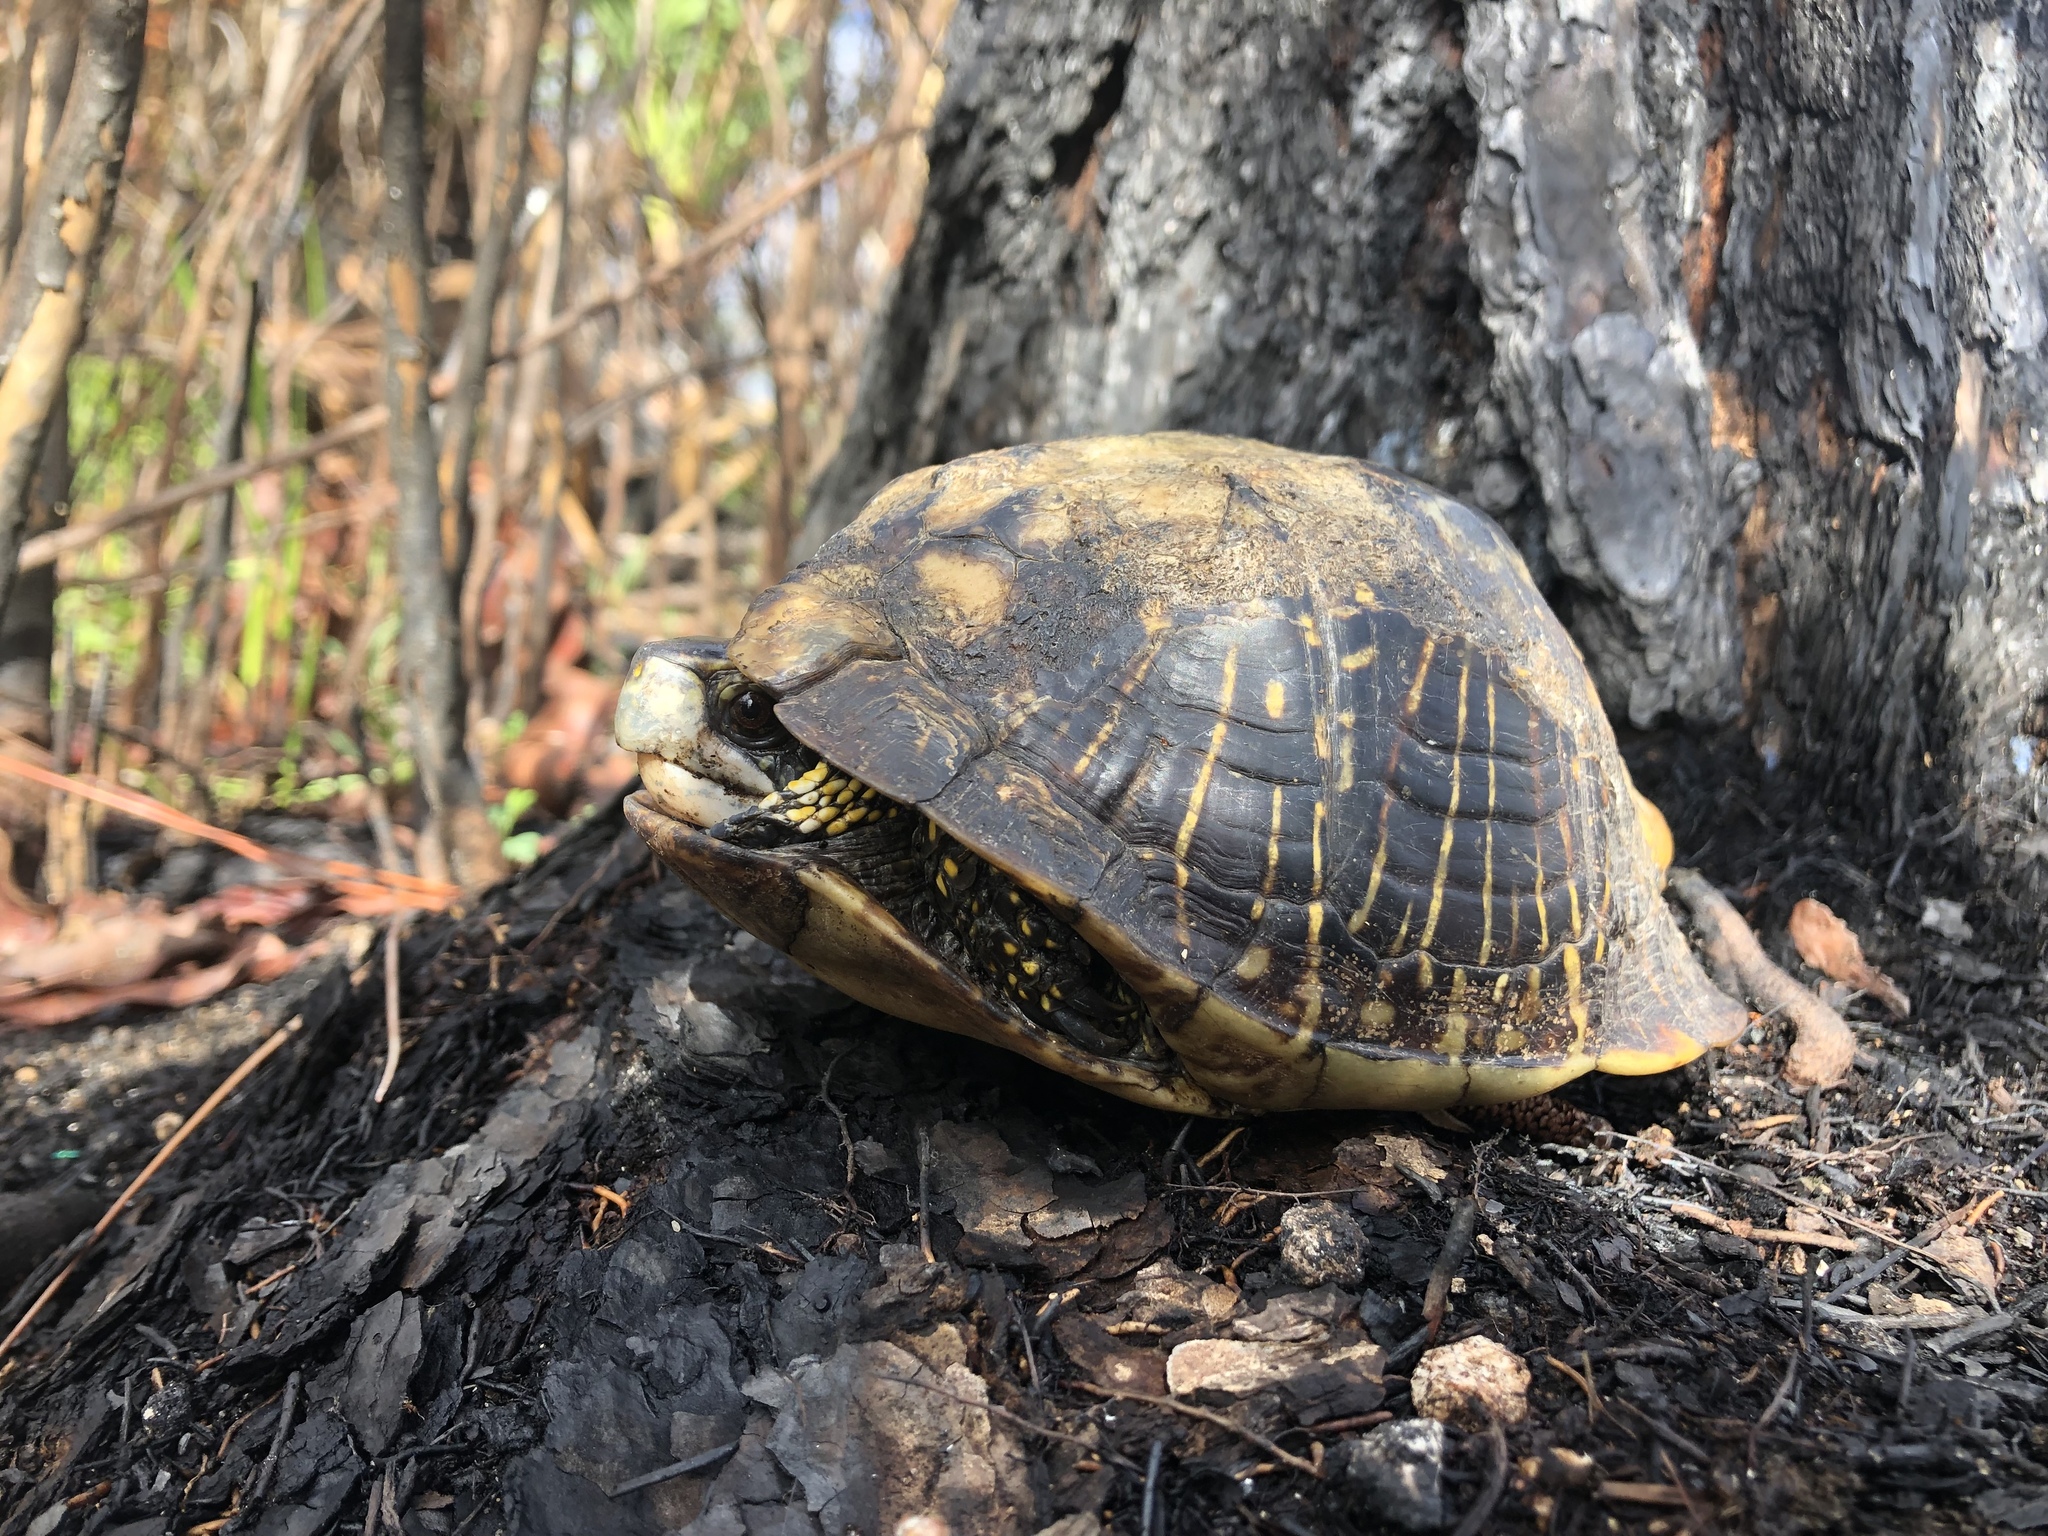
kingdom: Animalia
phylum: Chordata
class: Testudines
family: Emydidae
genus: Terrapene
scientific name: Terrapene carolina
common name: Common box turtle
